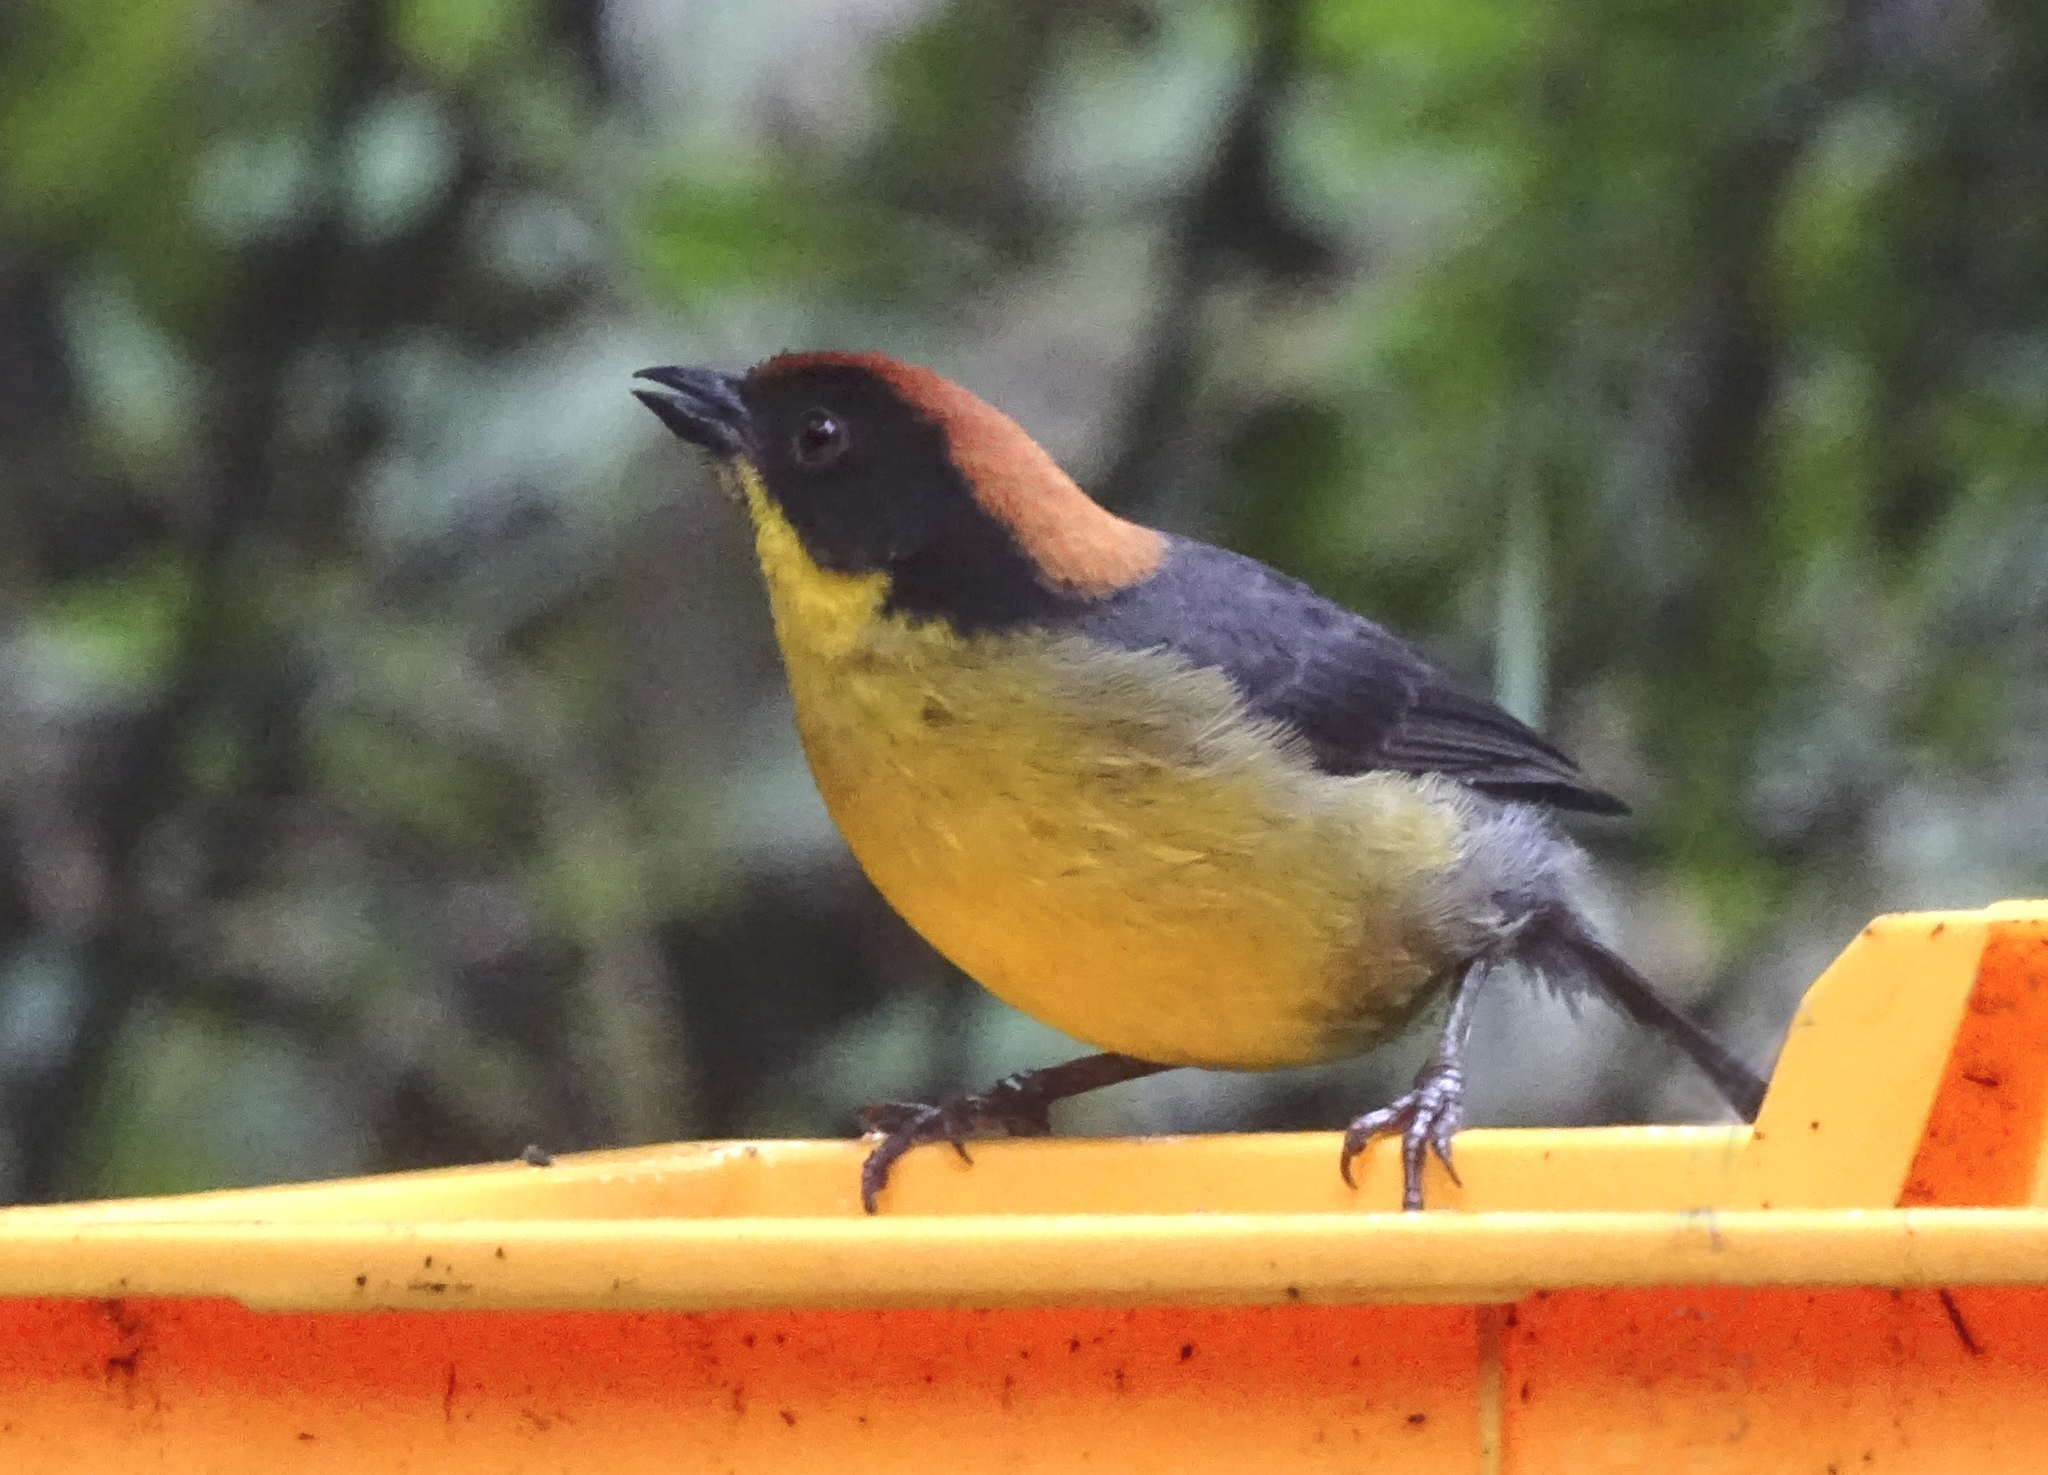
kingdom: Animalia
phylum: Chordata
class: Aves
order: Passeriformes
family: Passerellidae
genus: Atlapetes
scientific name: Atlapetes latinuchus
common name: Yellow-breasted brushfinch
